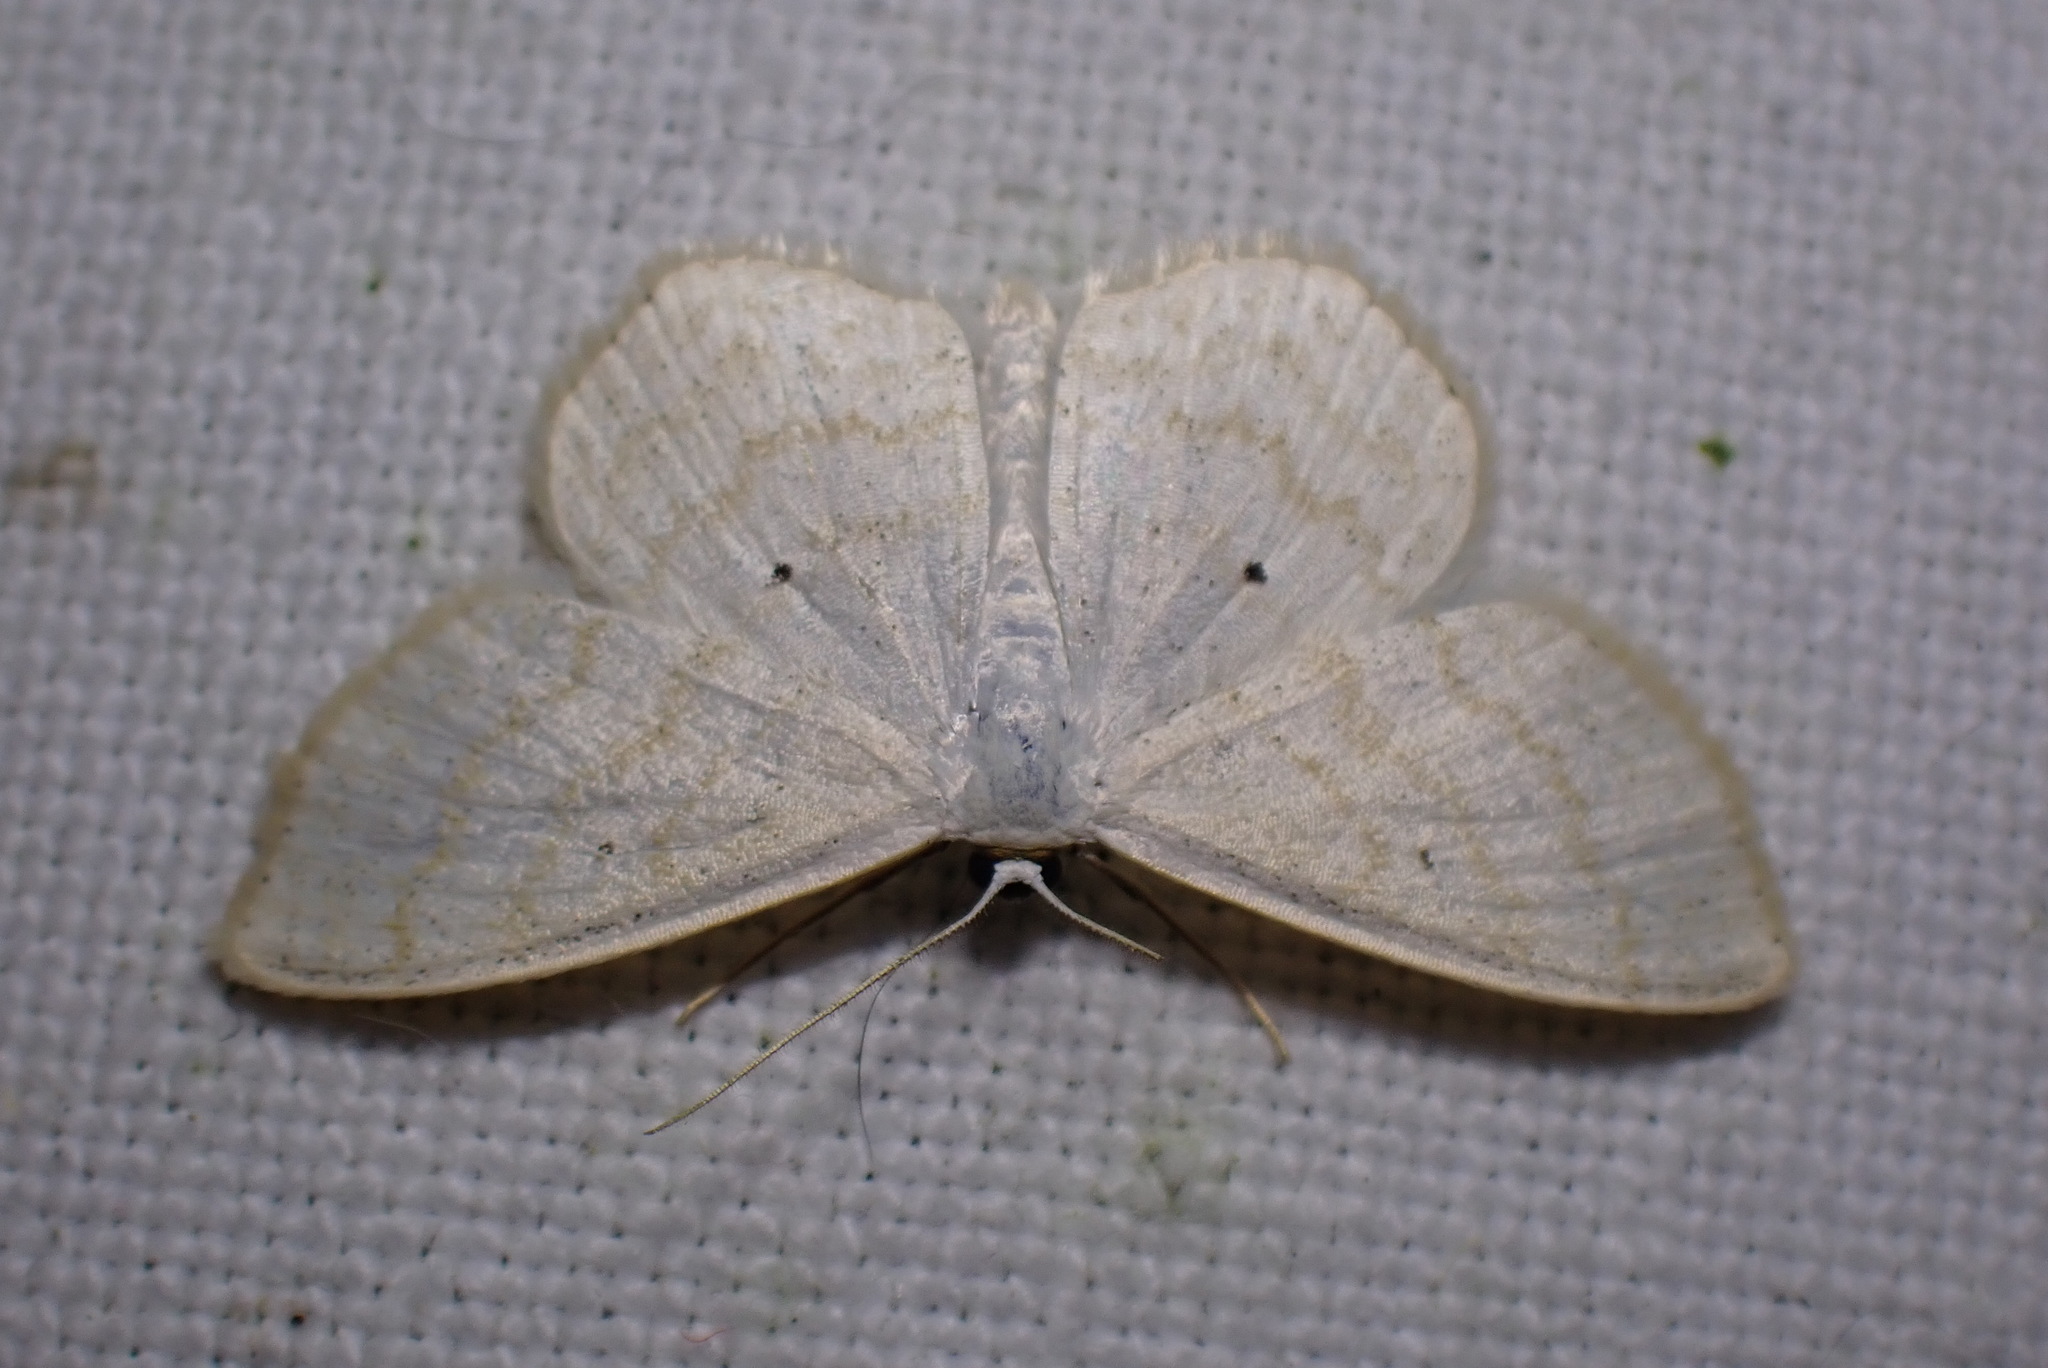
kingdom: Animalia
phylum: Arthropoda
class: Insecta
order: Lepidoptera
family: Geometridae
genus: Scopula
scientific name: Scopula immutata
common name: Lesser cream wave
